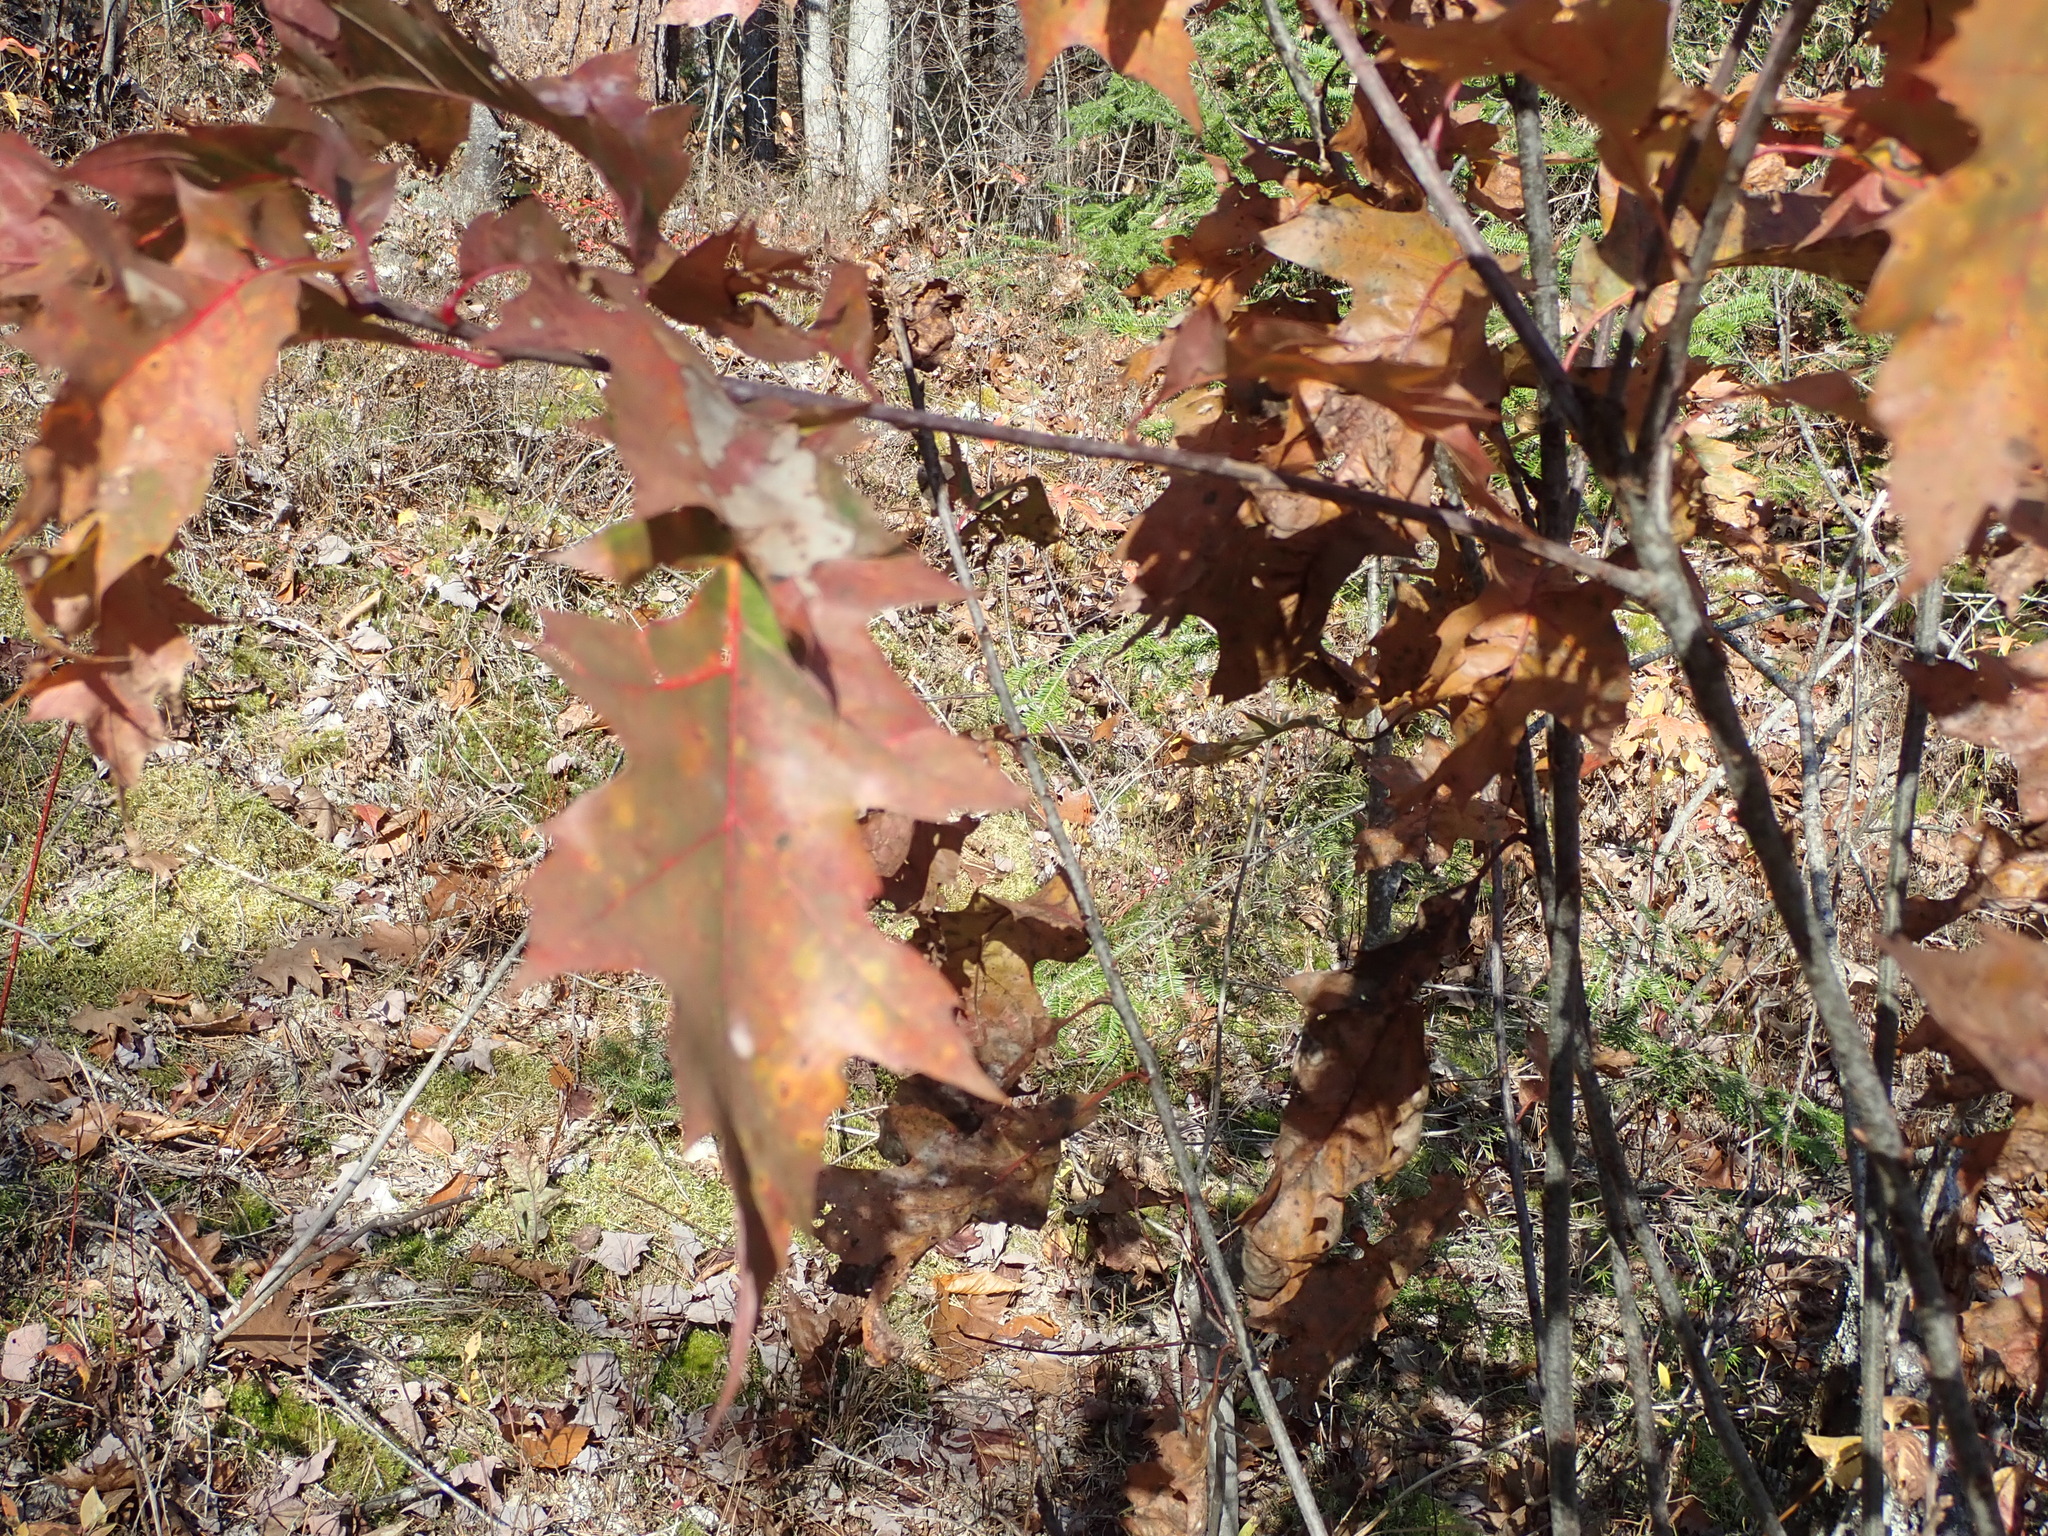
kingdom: Plantae
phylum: Tracheophyta
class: Magnoliopsida
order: Fagales
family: Fagaceae
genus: Quercus
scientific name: Quercus rubra
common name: Red oak
